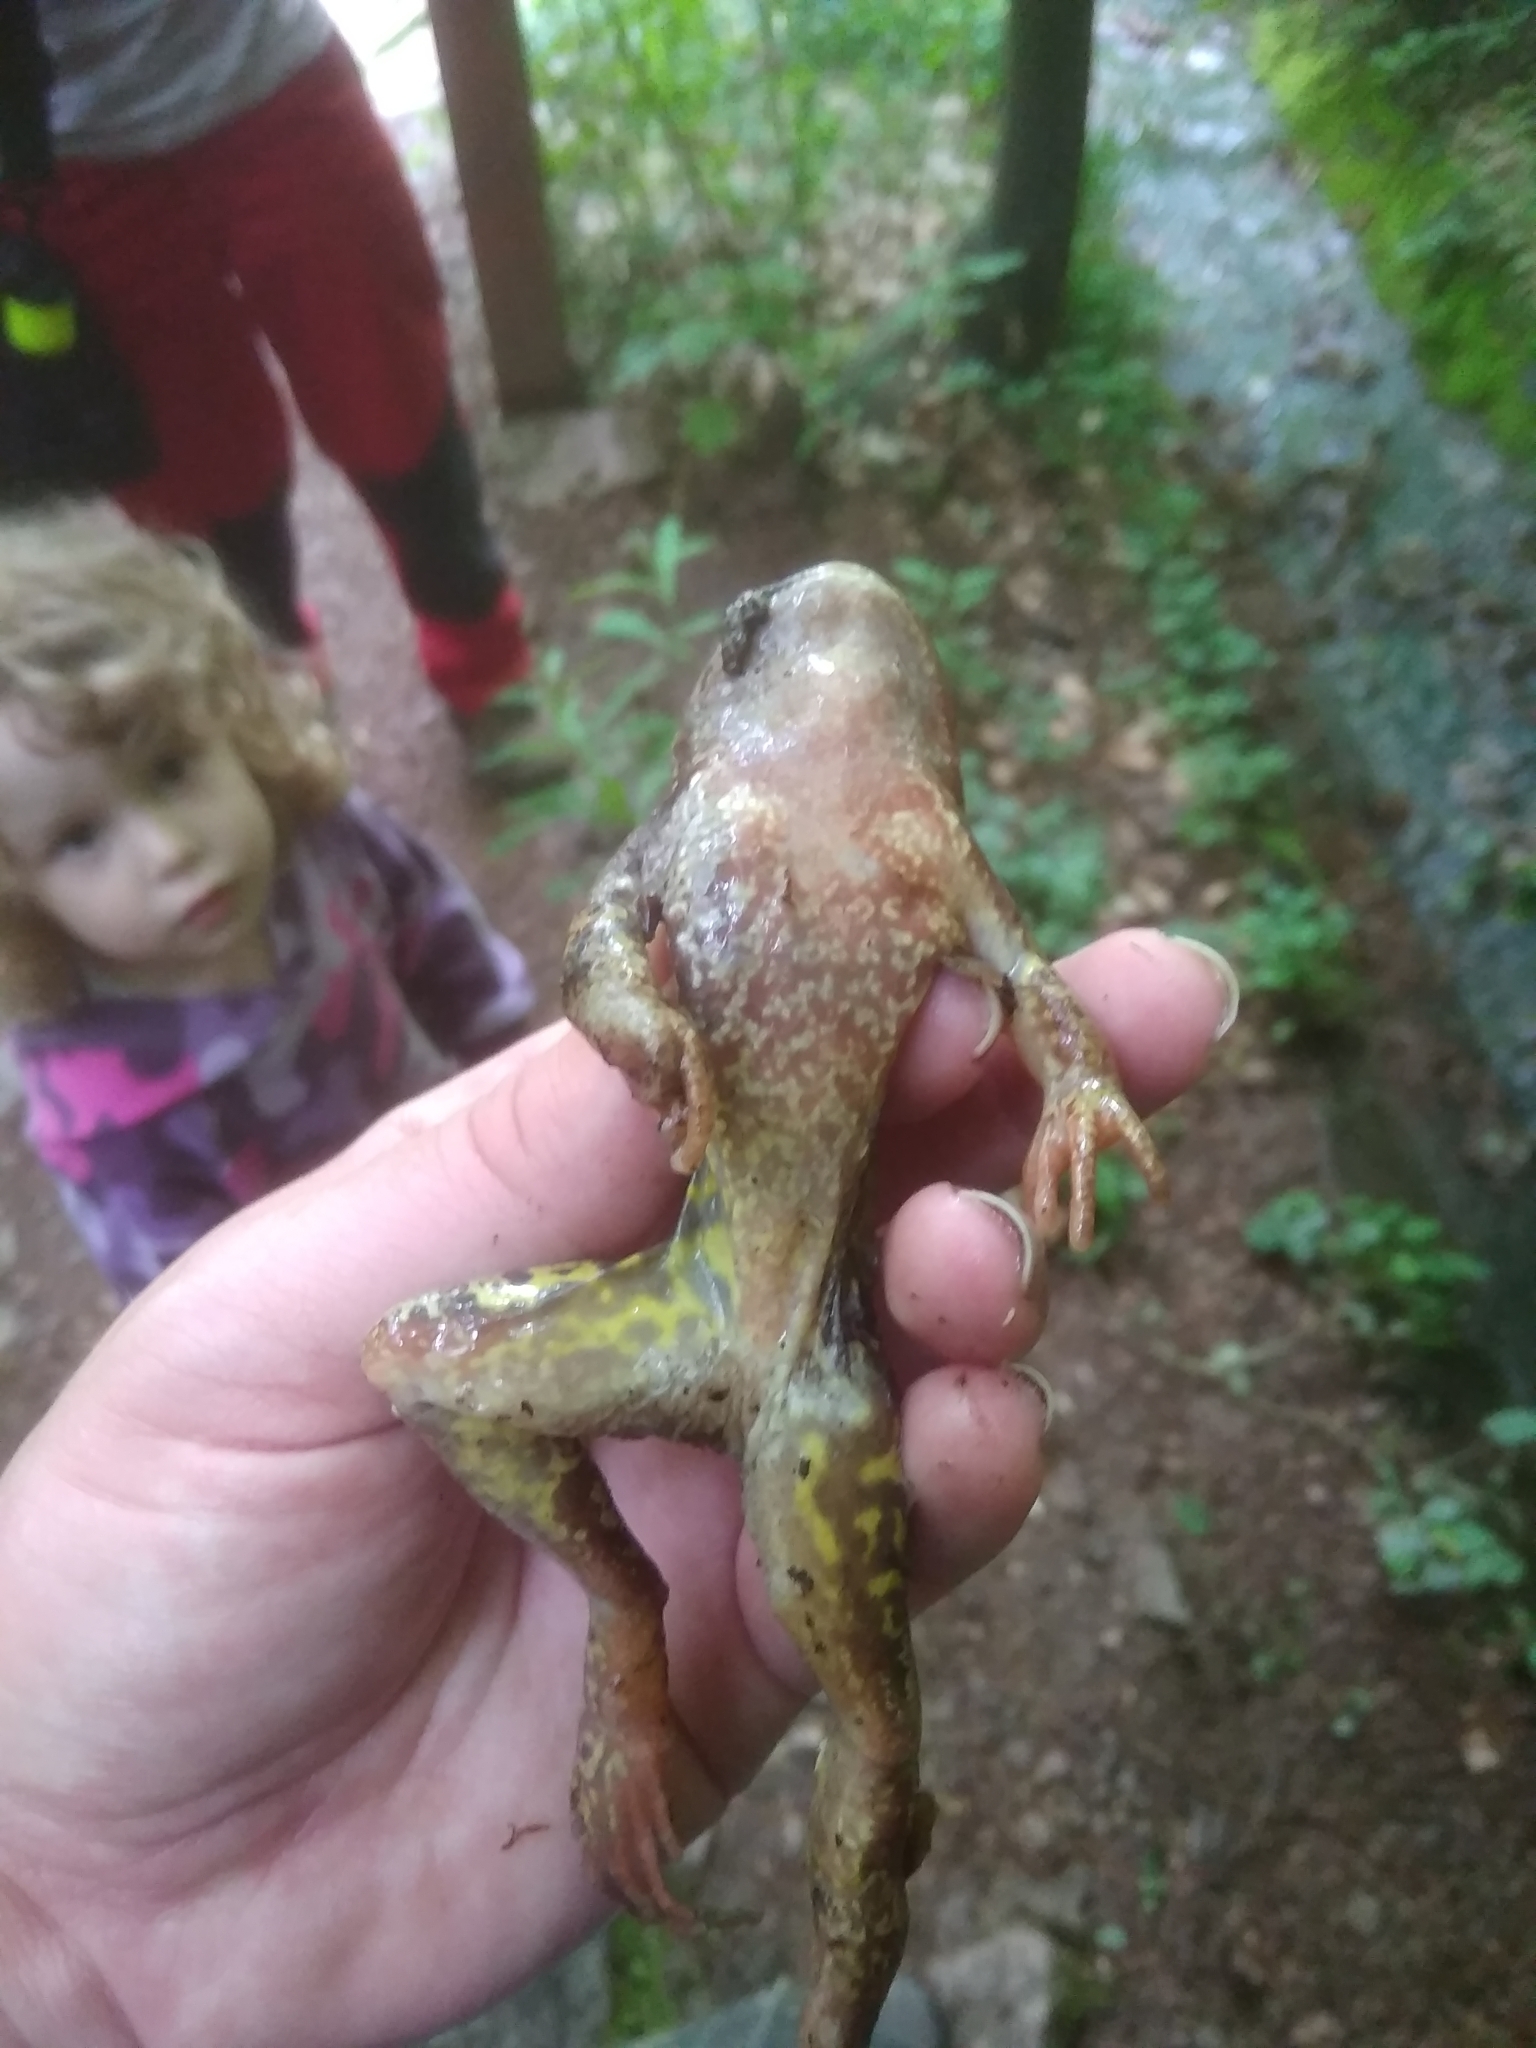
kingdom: Animalia
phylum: Chordata
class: Amphibia
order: Anura
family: Ranidae
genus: Rana
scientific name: Rana temporaria
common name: Common frog
